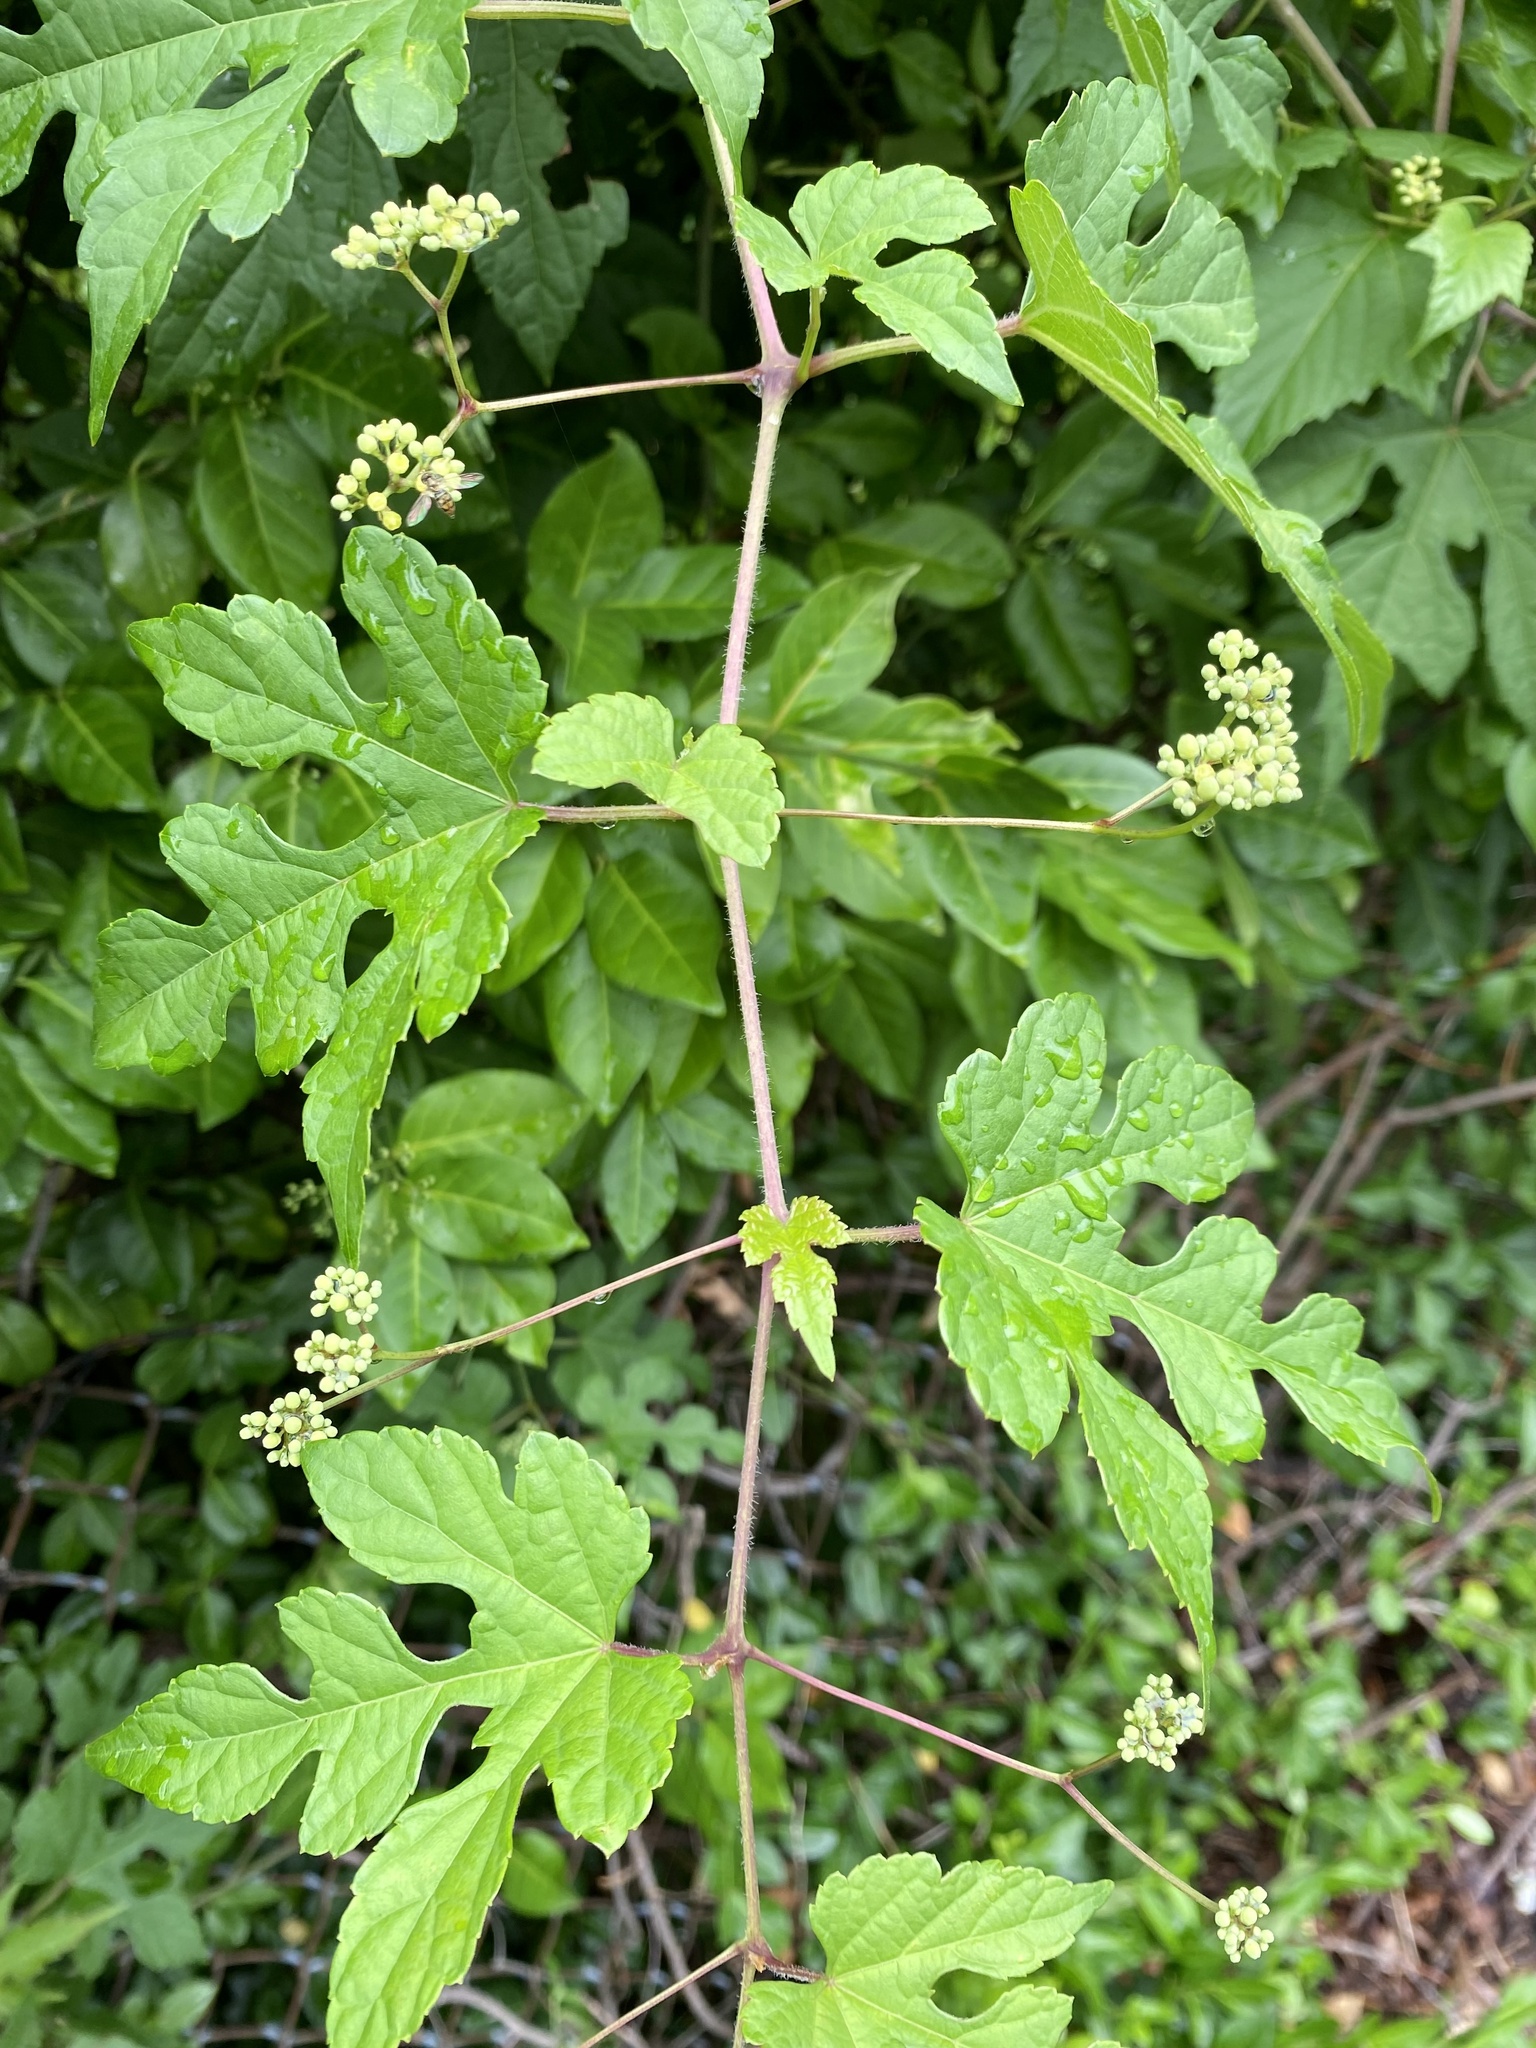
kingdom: Plantae
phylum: Tracheophyta
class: Magnoliopsida
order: Vitales
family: Vitaceae
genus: Ampelopsis
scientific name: Ampelopsis glandulosa
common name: Amur peppervine
